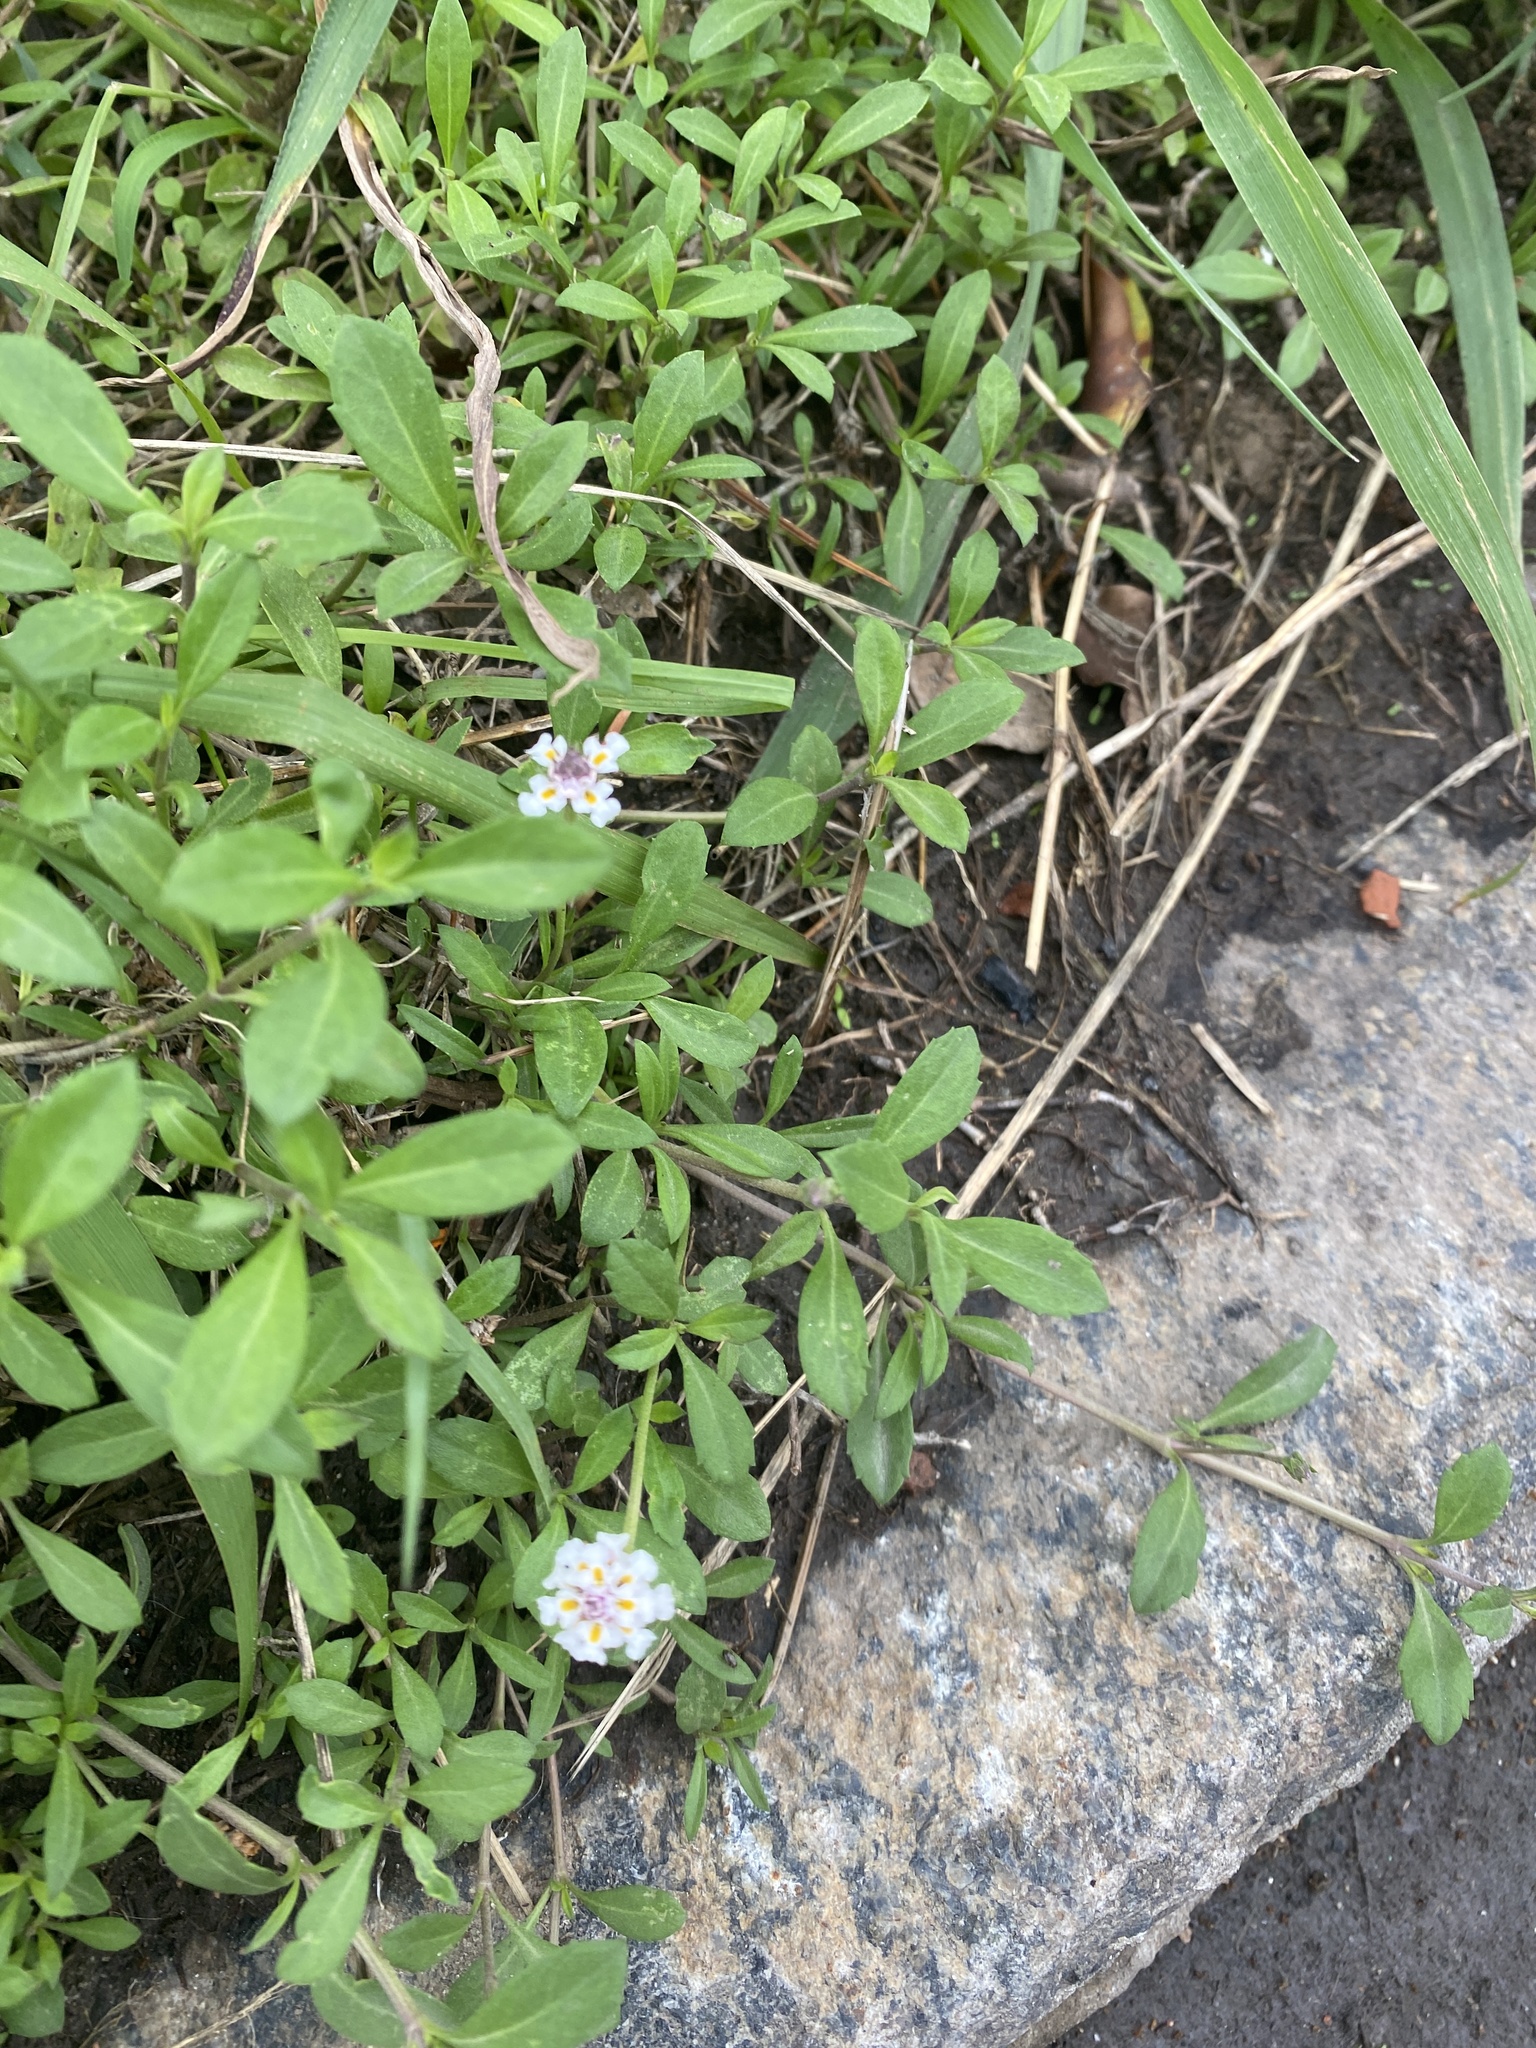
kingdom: Plantae
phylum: Tracheophyta
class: Magnoliopsida
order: Lamiales
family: Verbenaceae
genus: Phyla
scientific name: Phyla nodiflora
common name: Frogfruit
